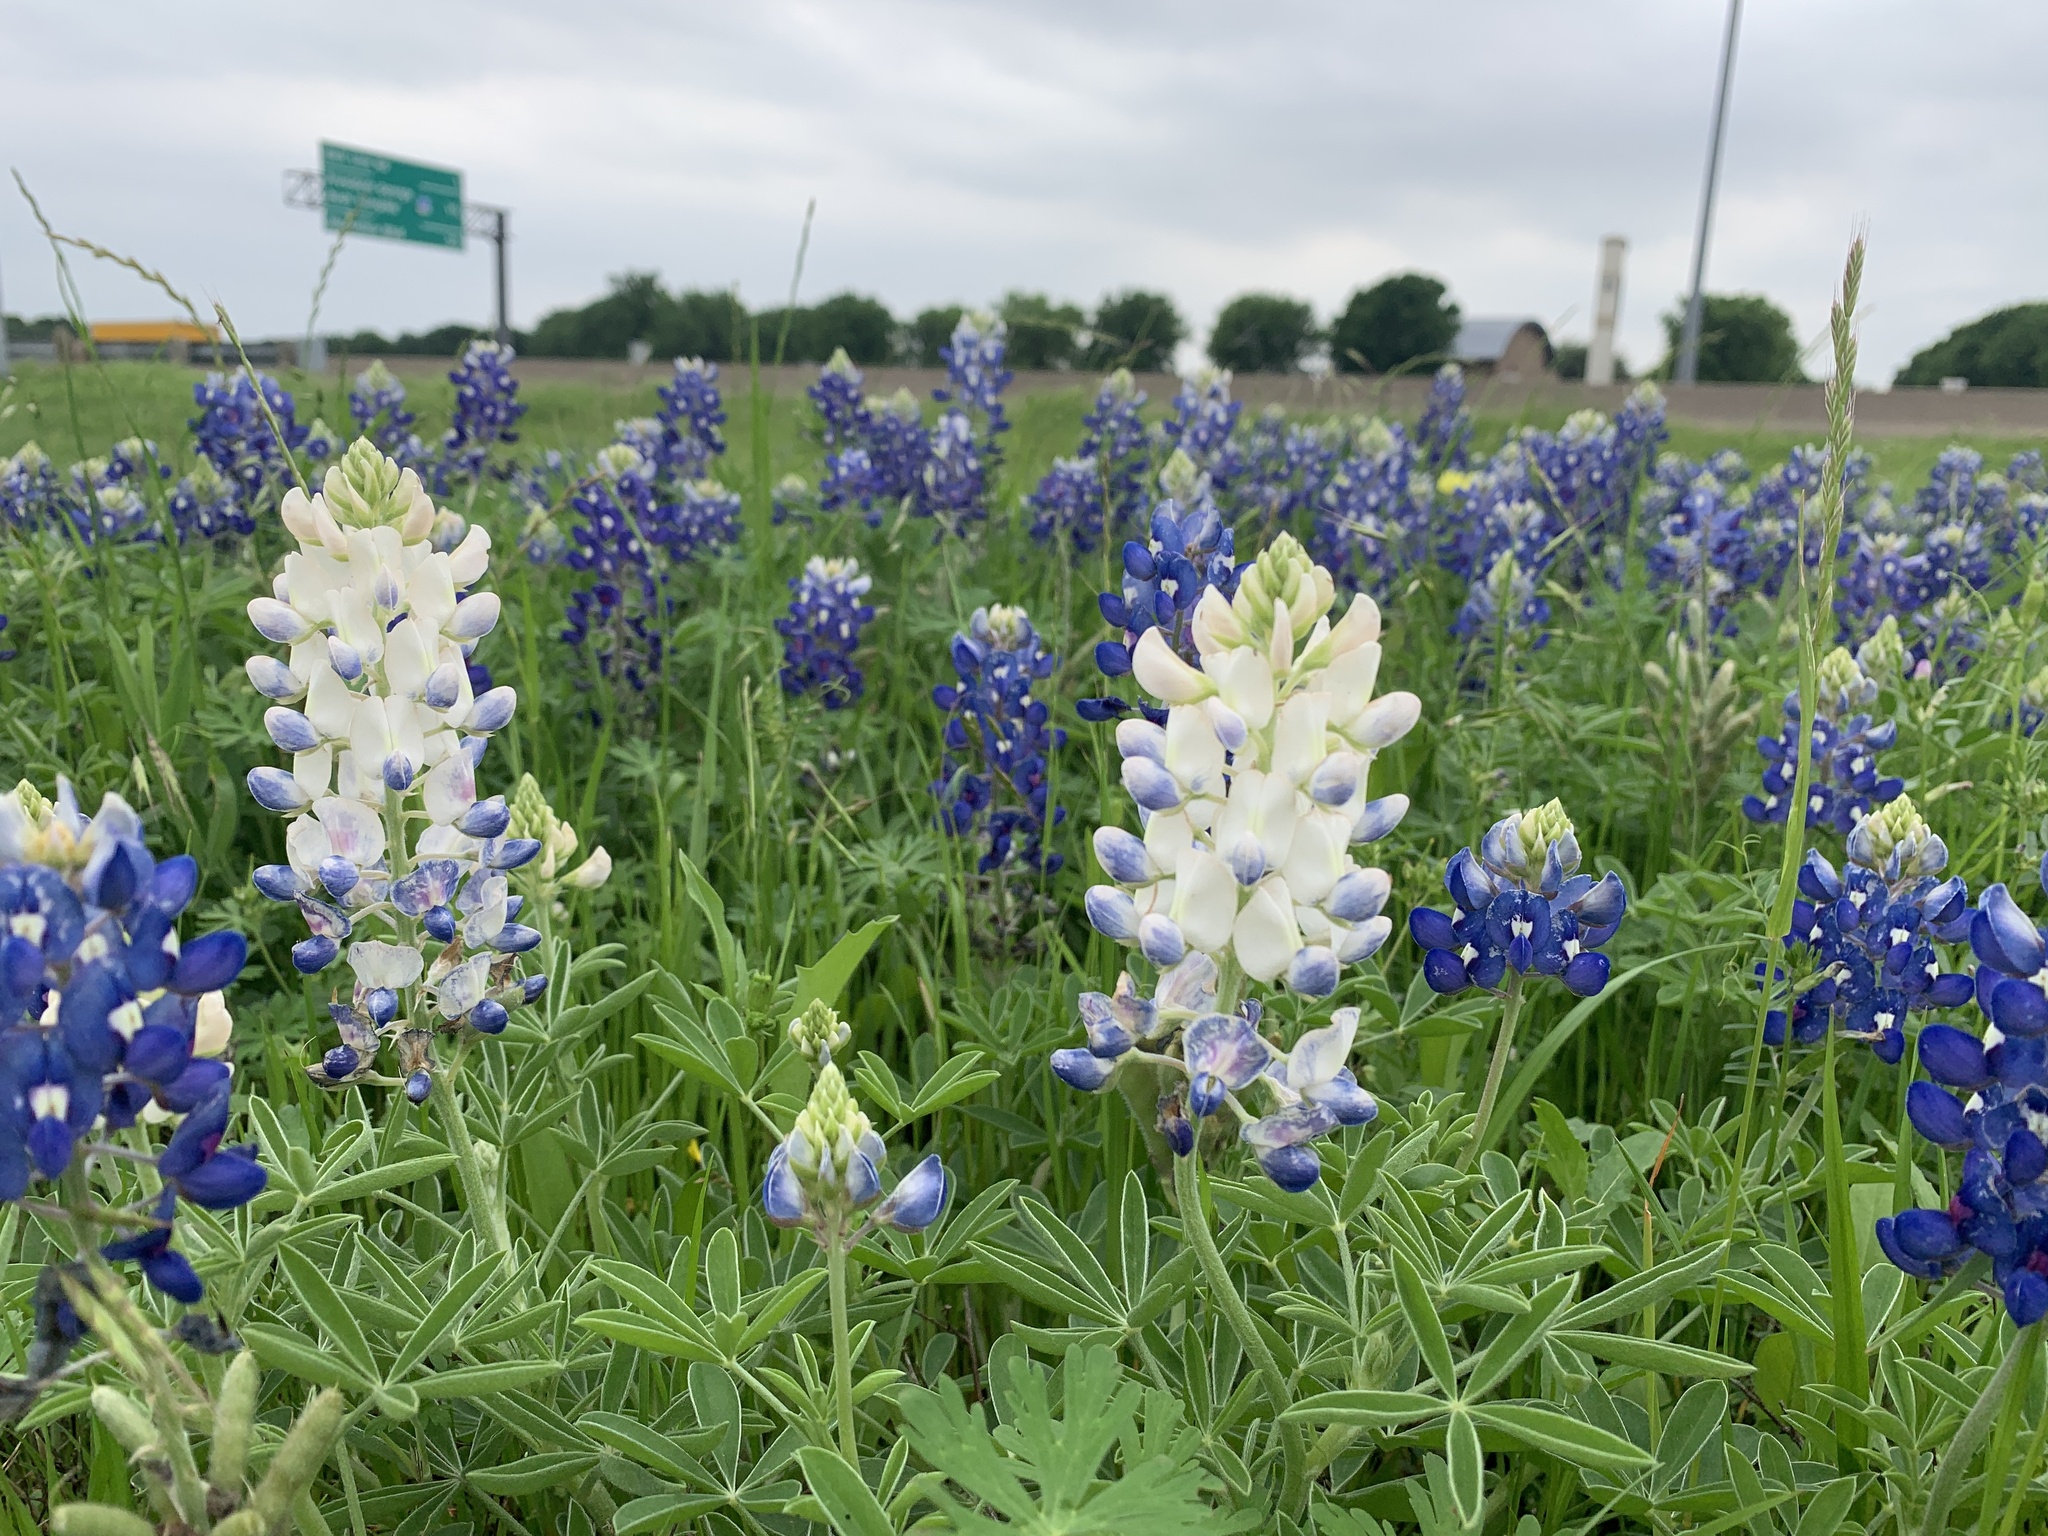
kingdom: Plantae
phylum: Tracheophyta
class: Magnoliopsida
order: Fabales
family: Fabaceae
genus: Lupinus
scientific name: Lupinus texensis
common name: Texas bluebonnet
